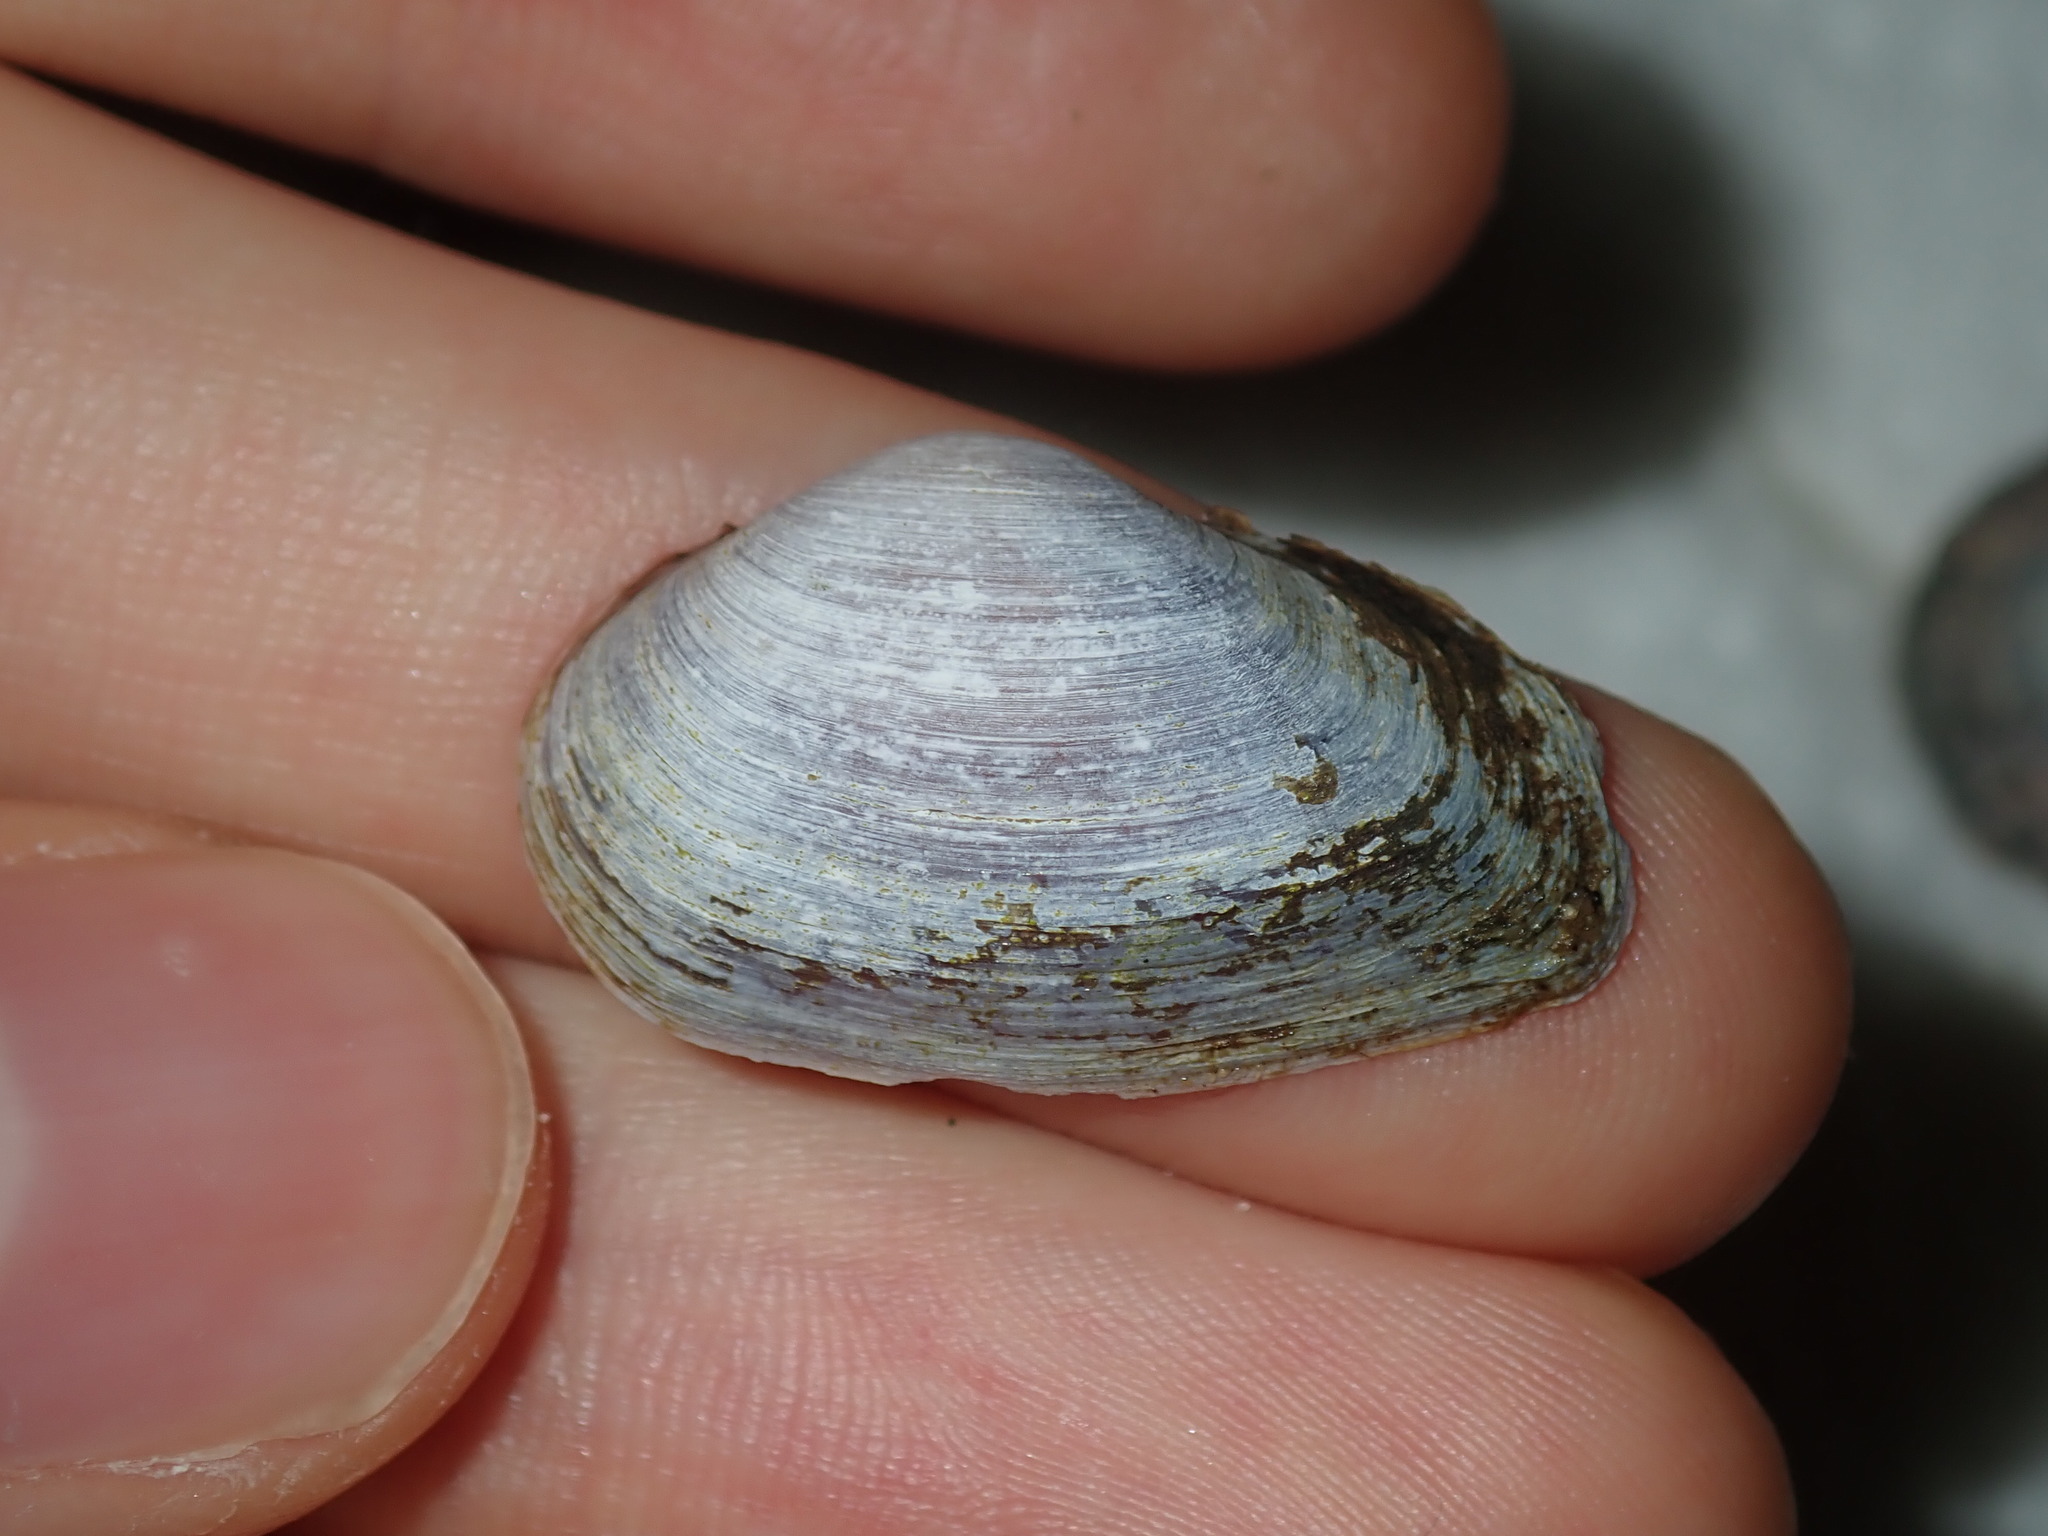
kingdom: Animalia
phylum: Mollusca
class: Bivalvia
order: Venerida
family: Glauconomidae
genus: Glauconome
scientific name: Glauconome radiata
